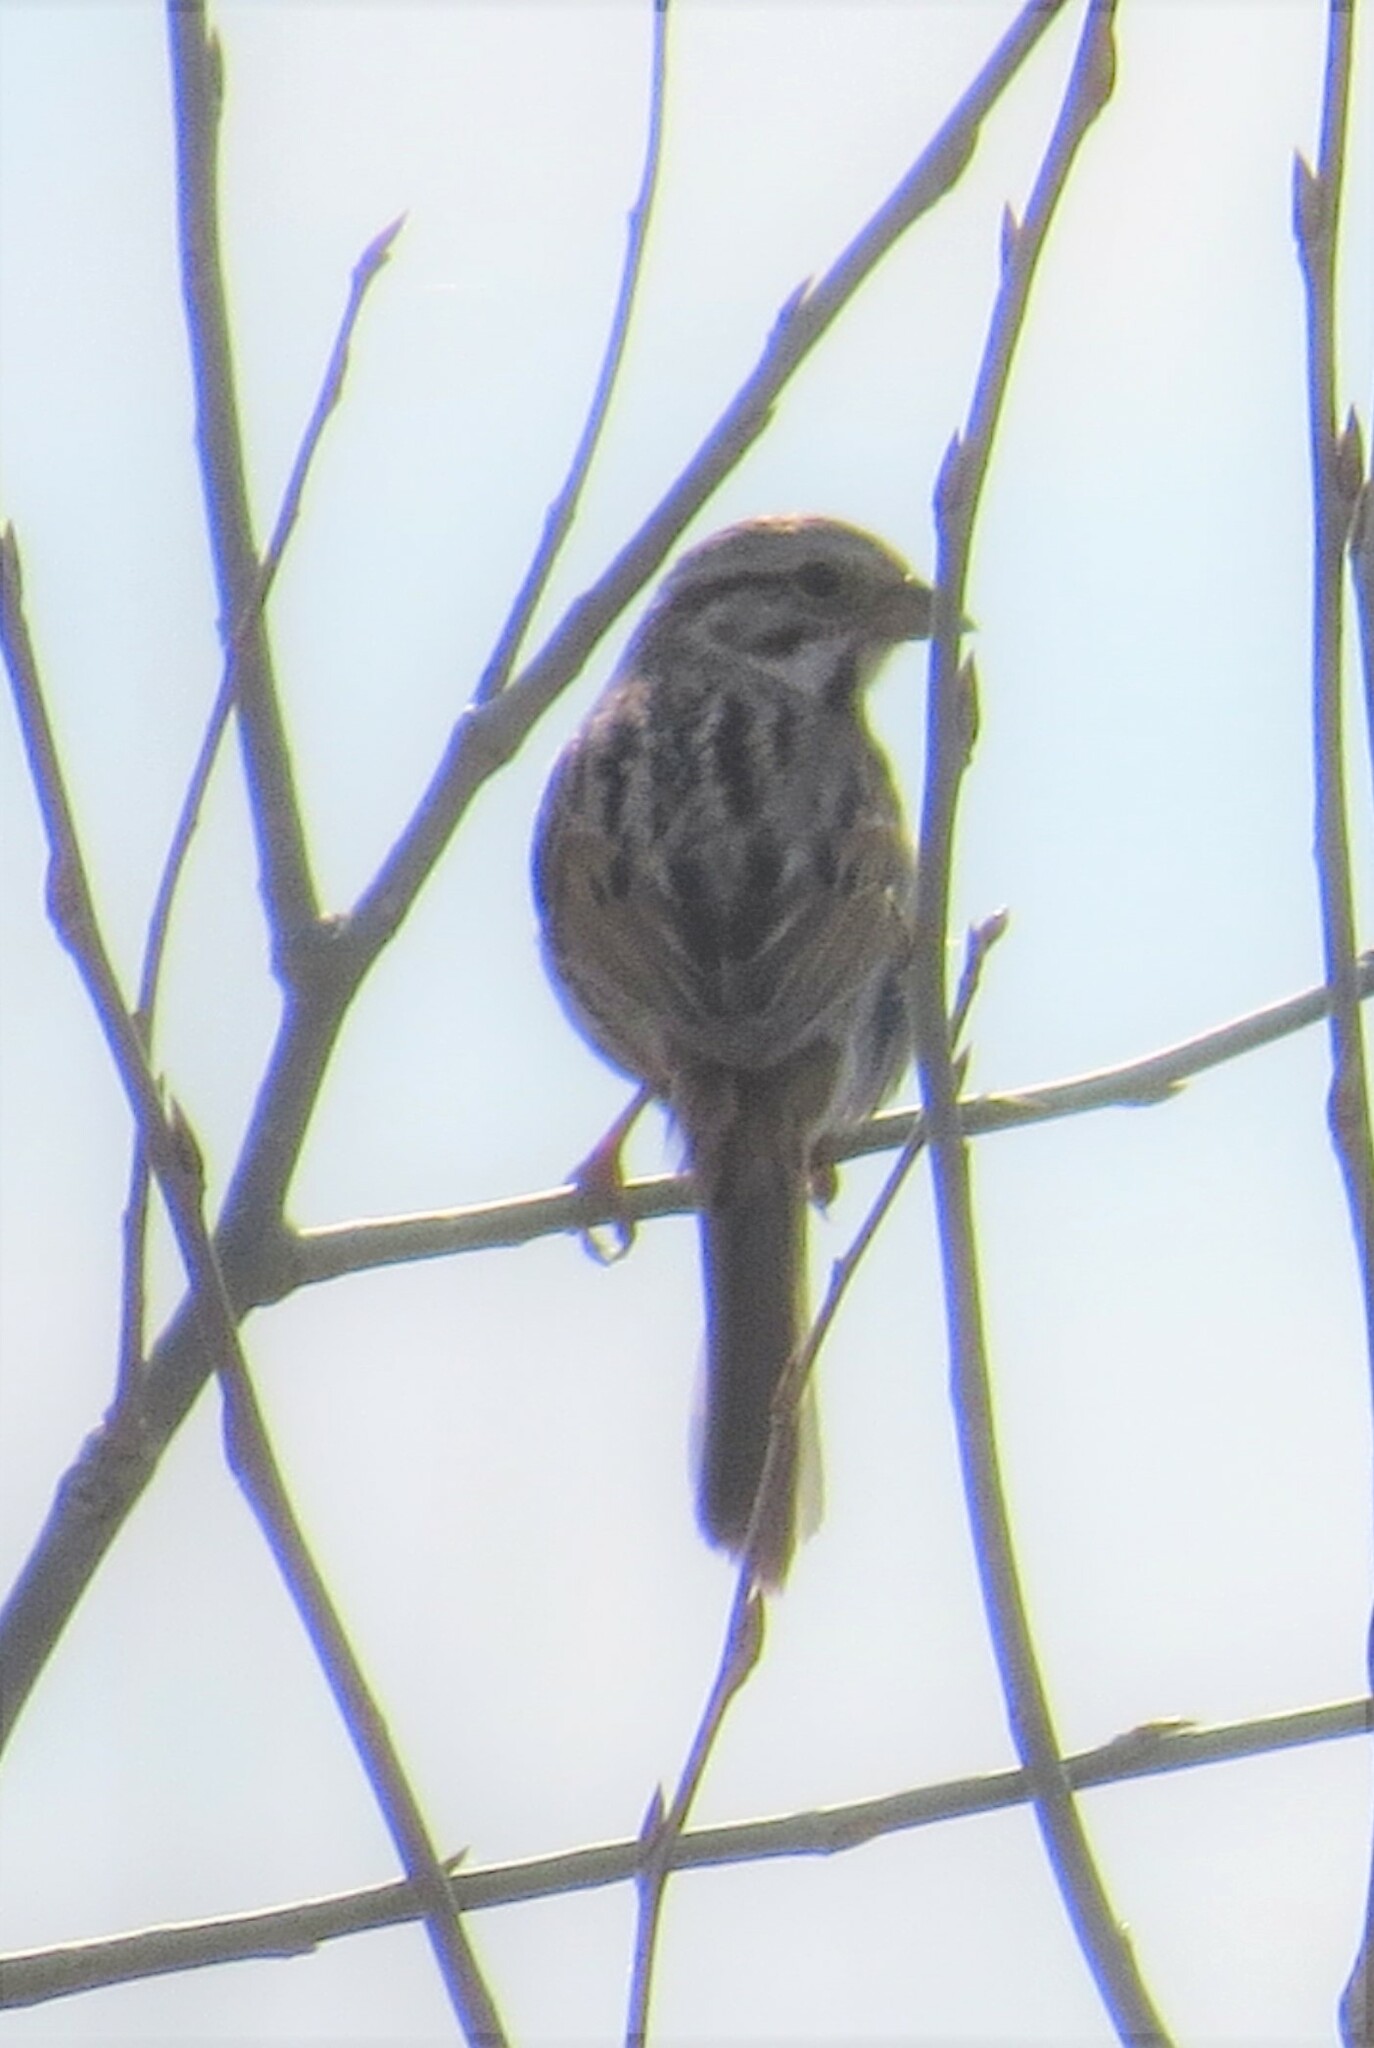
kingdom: Animalia
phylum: Chordata
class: Aves
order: Passeriformes
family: Passerellidae
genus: Melospiza
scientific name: Melospiza melodia
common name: Song sparrow
